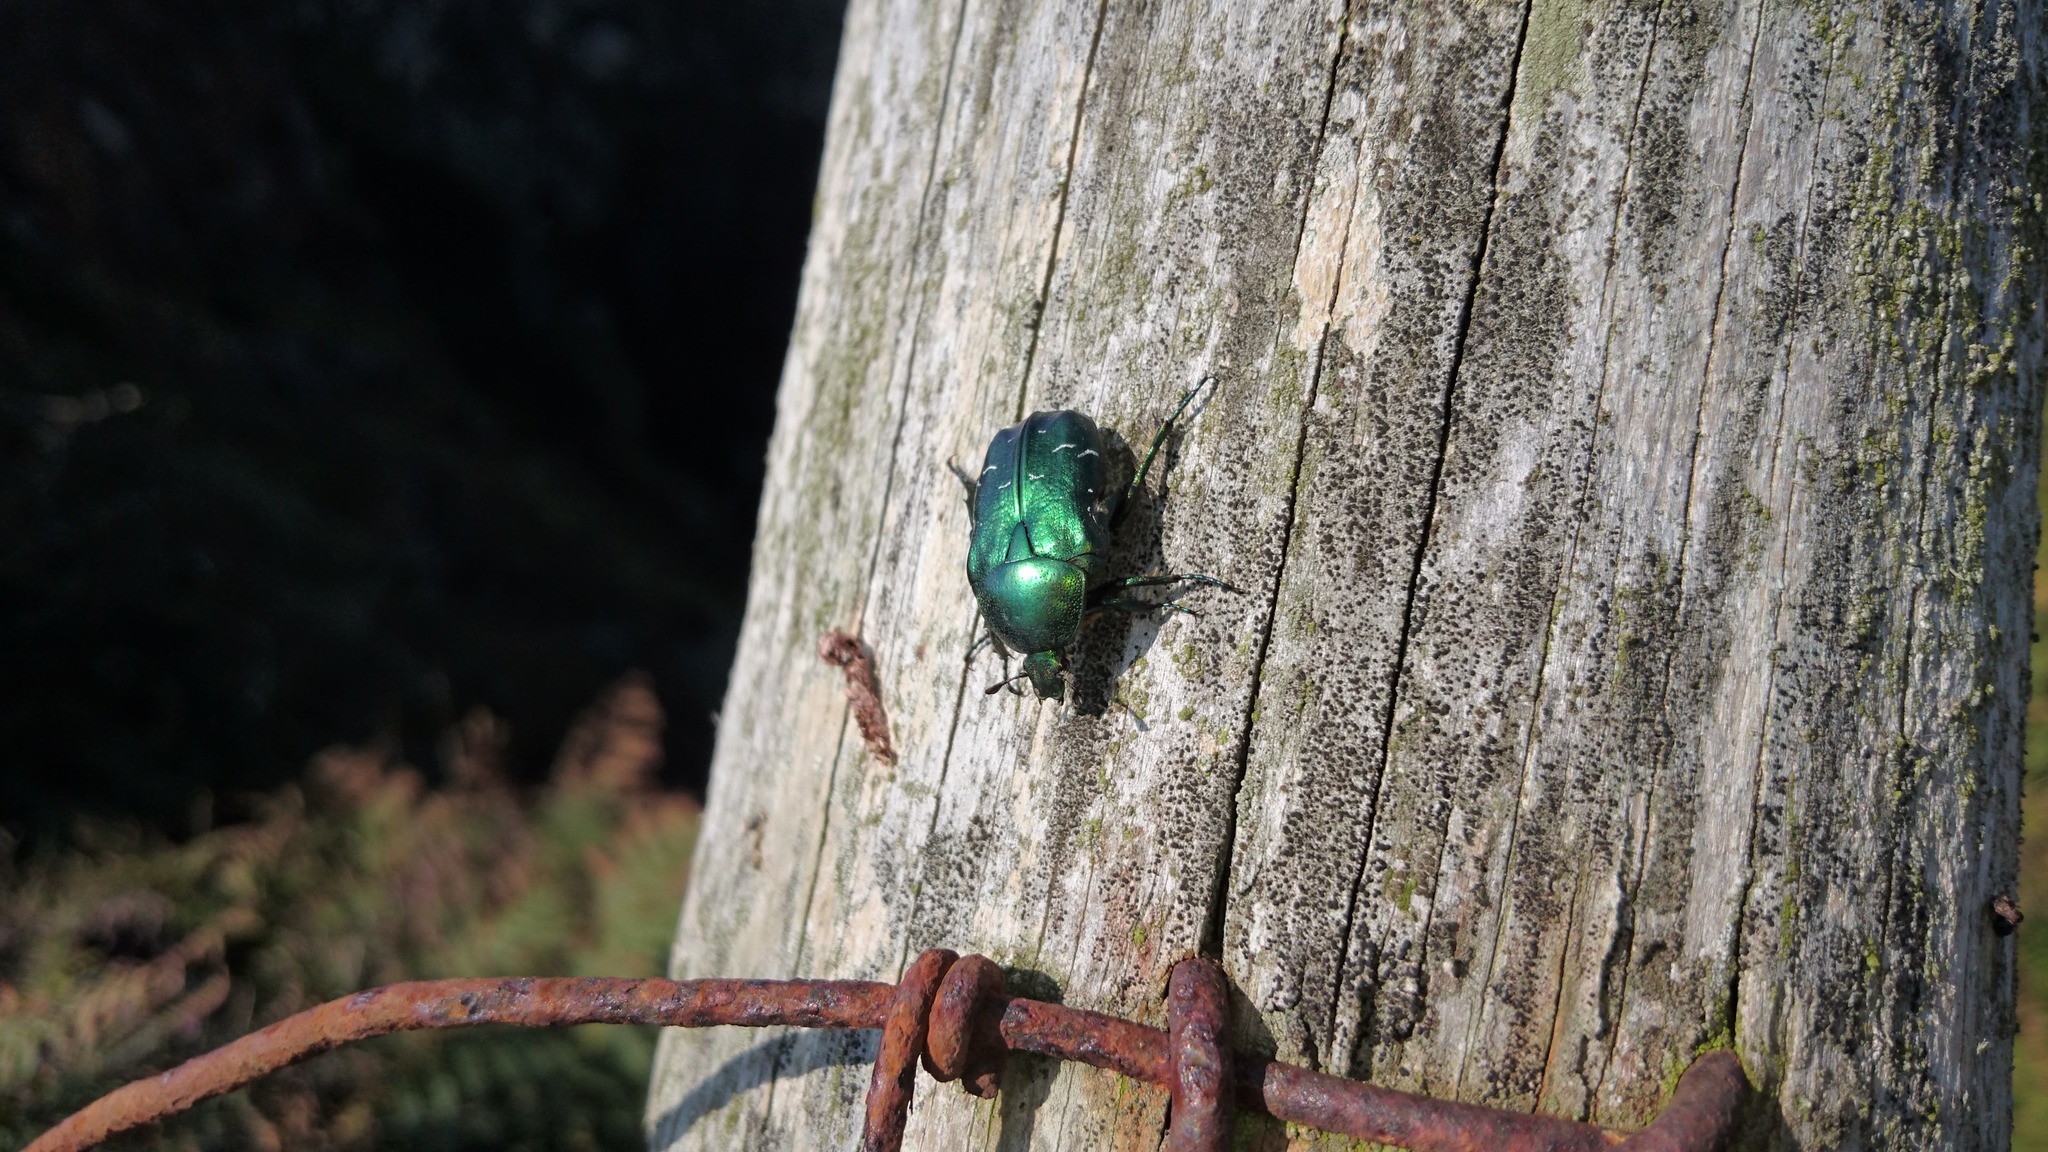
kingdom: Animalia
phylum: Arthropoda
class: Insecta
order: Coleoptera
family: Scarabaeidae
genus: Cetonia
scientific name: Cetonia aurata
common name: Rose chafer
